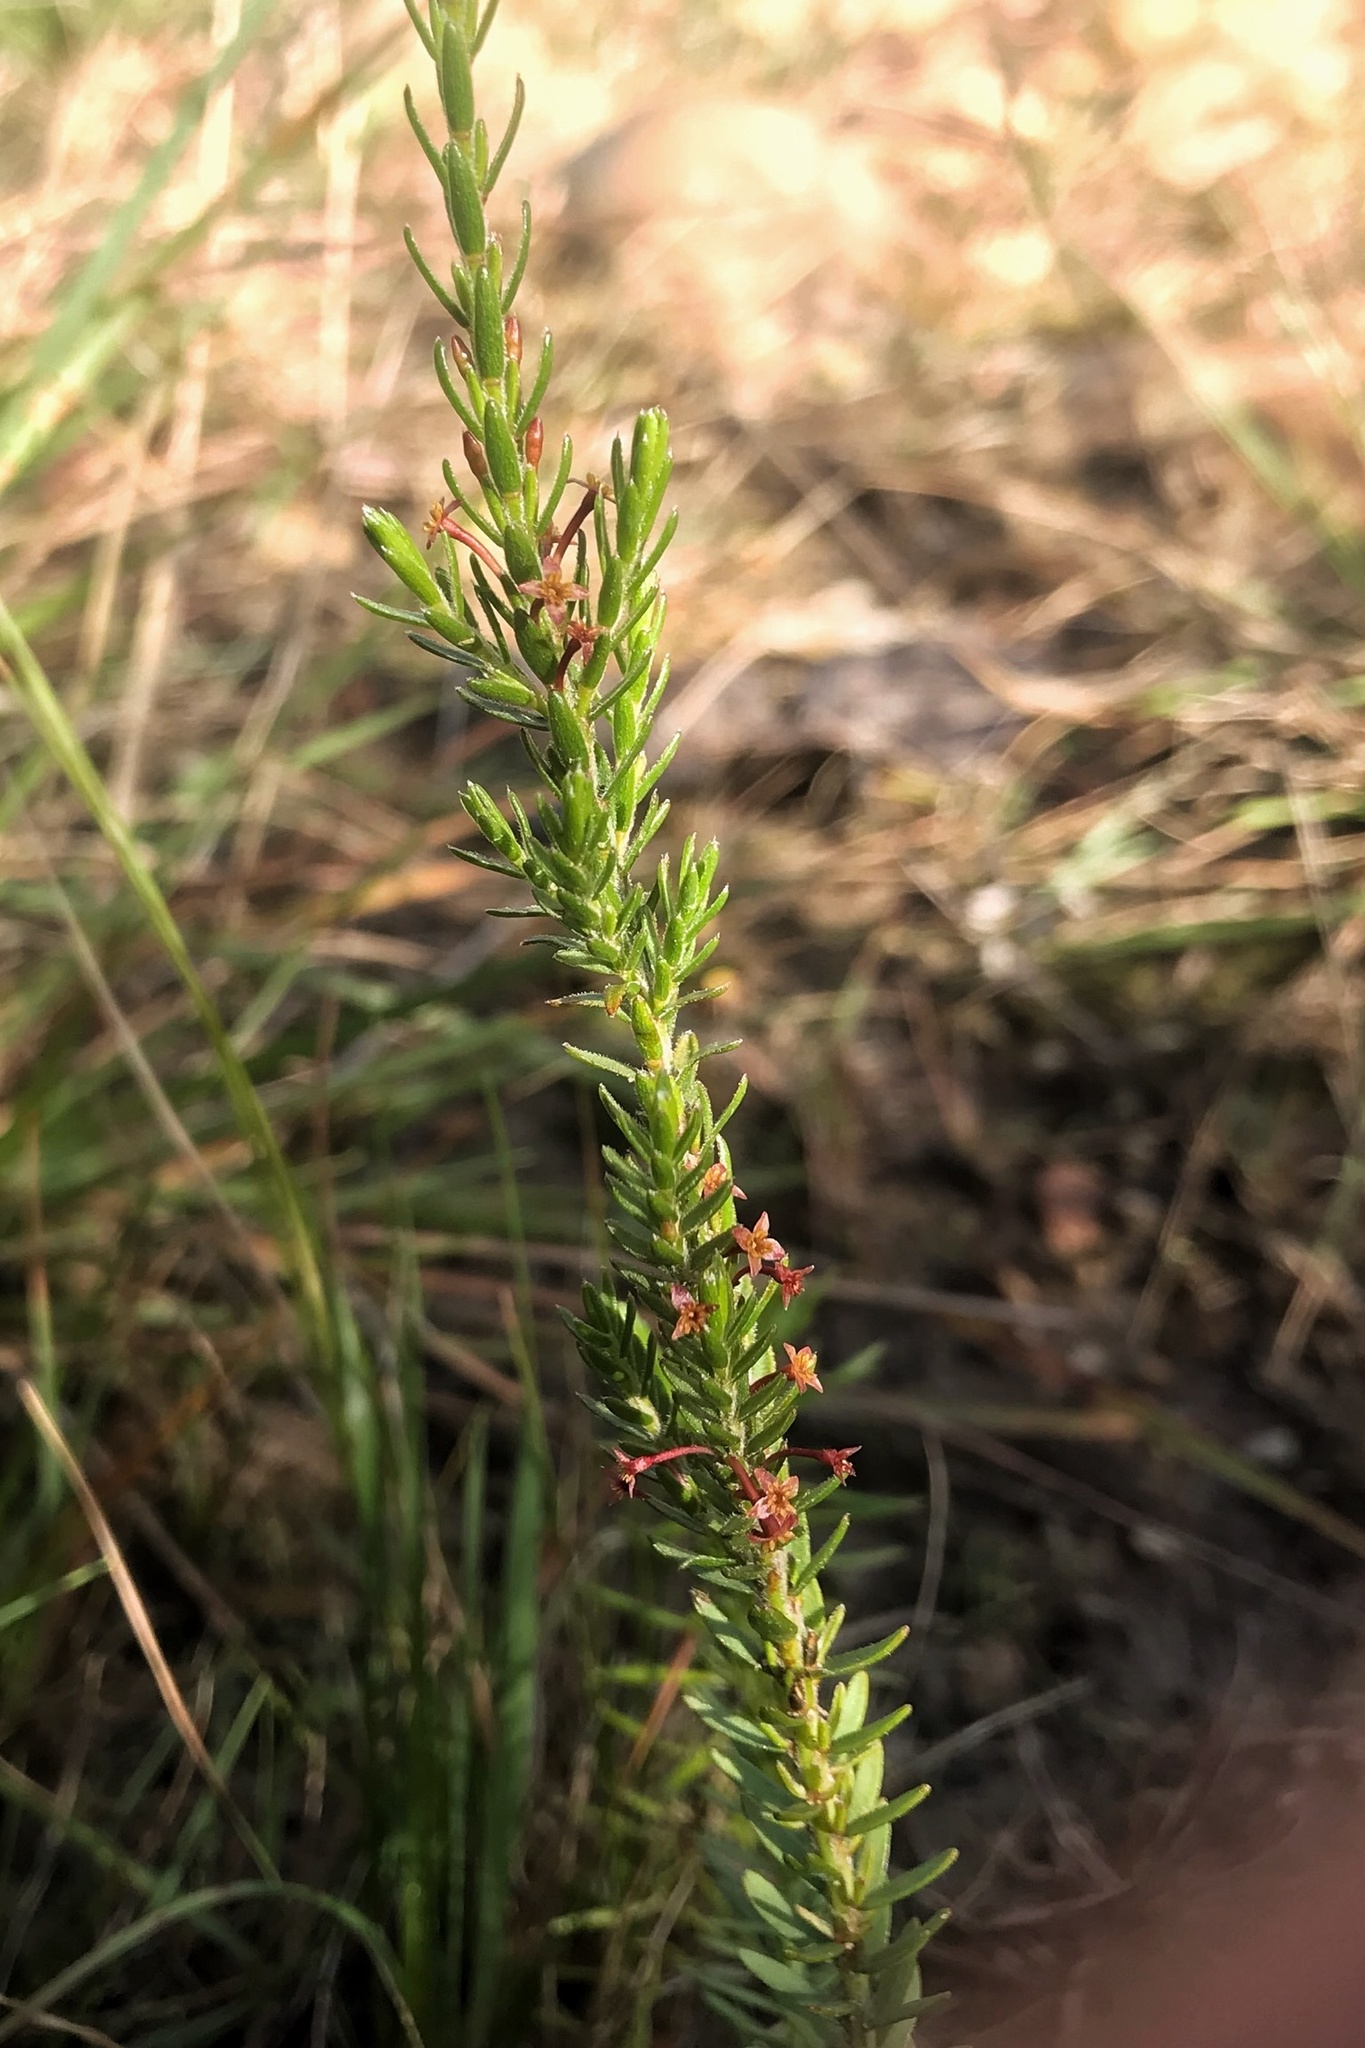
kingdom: Plantae
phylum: Tracheophyta
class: Magnoliopsida
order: Malvales
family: Thymelaeaceae
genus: Struthiola
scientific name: Struthiola dodecandra
